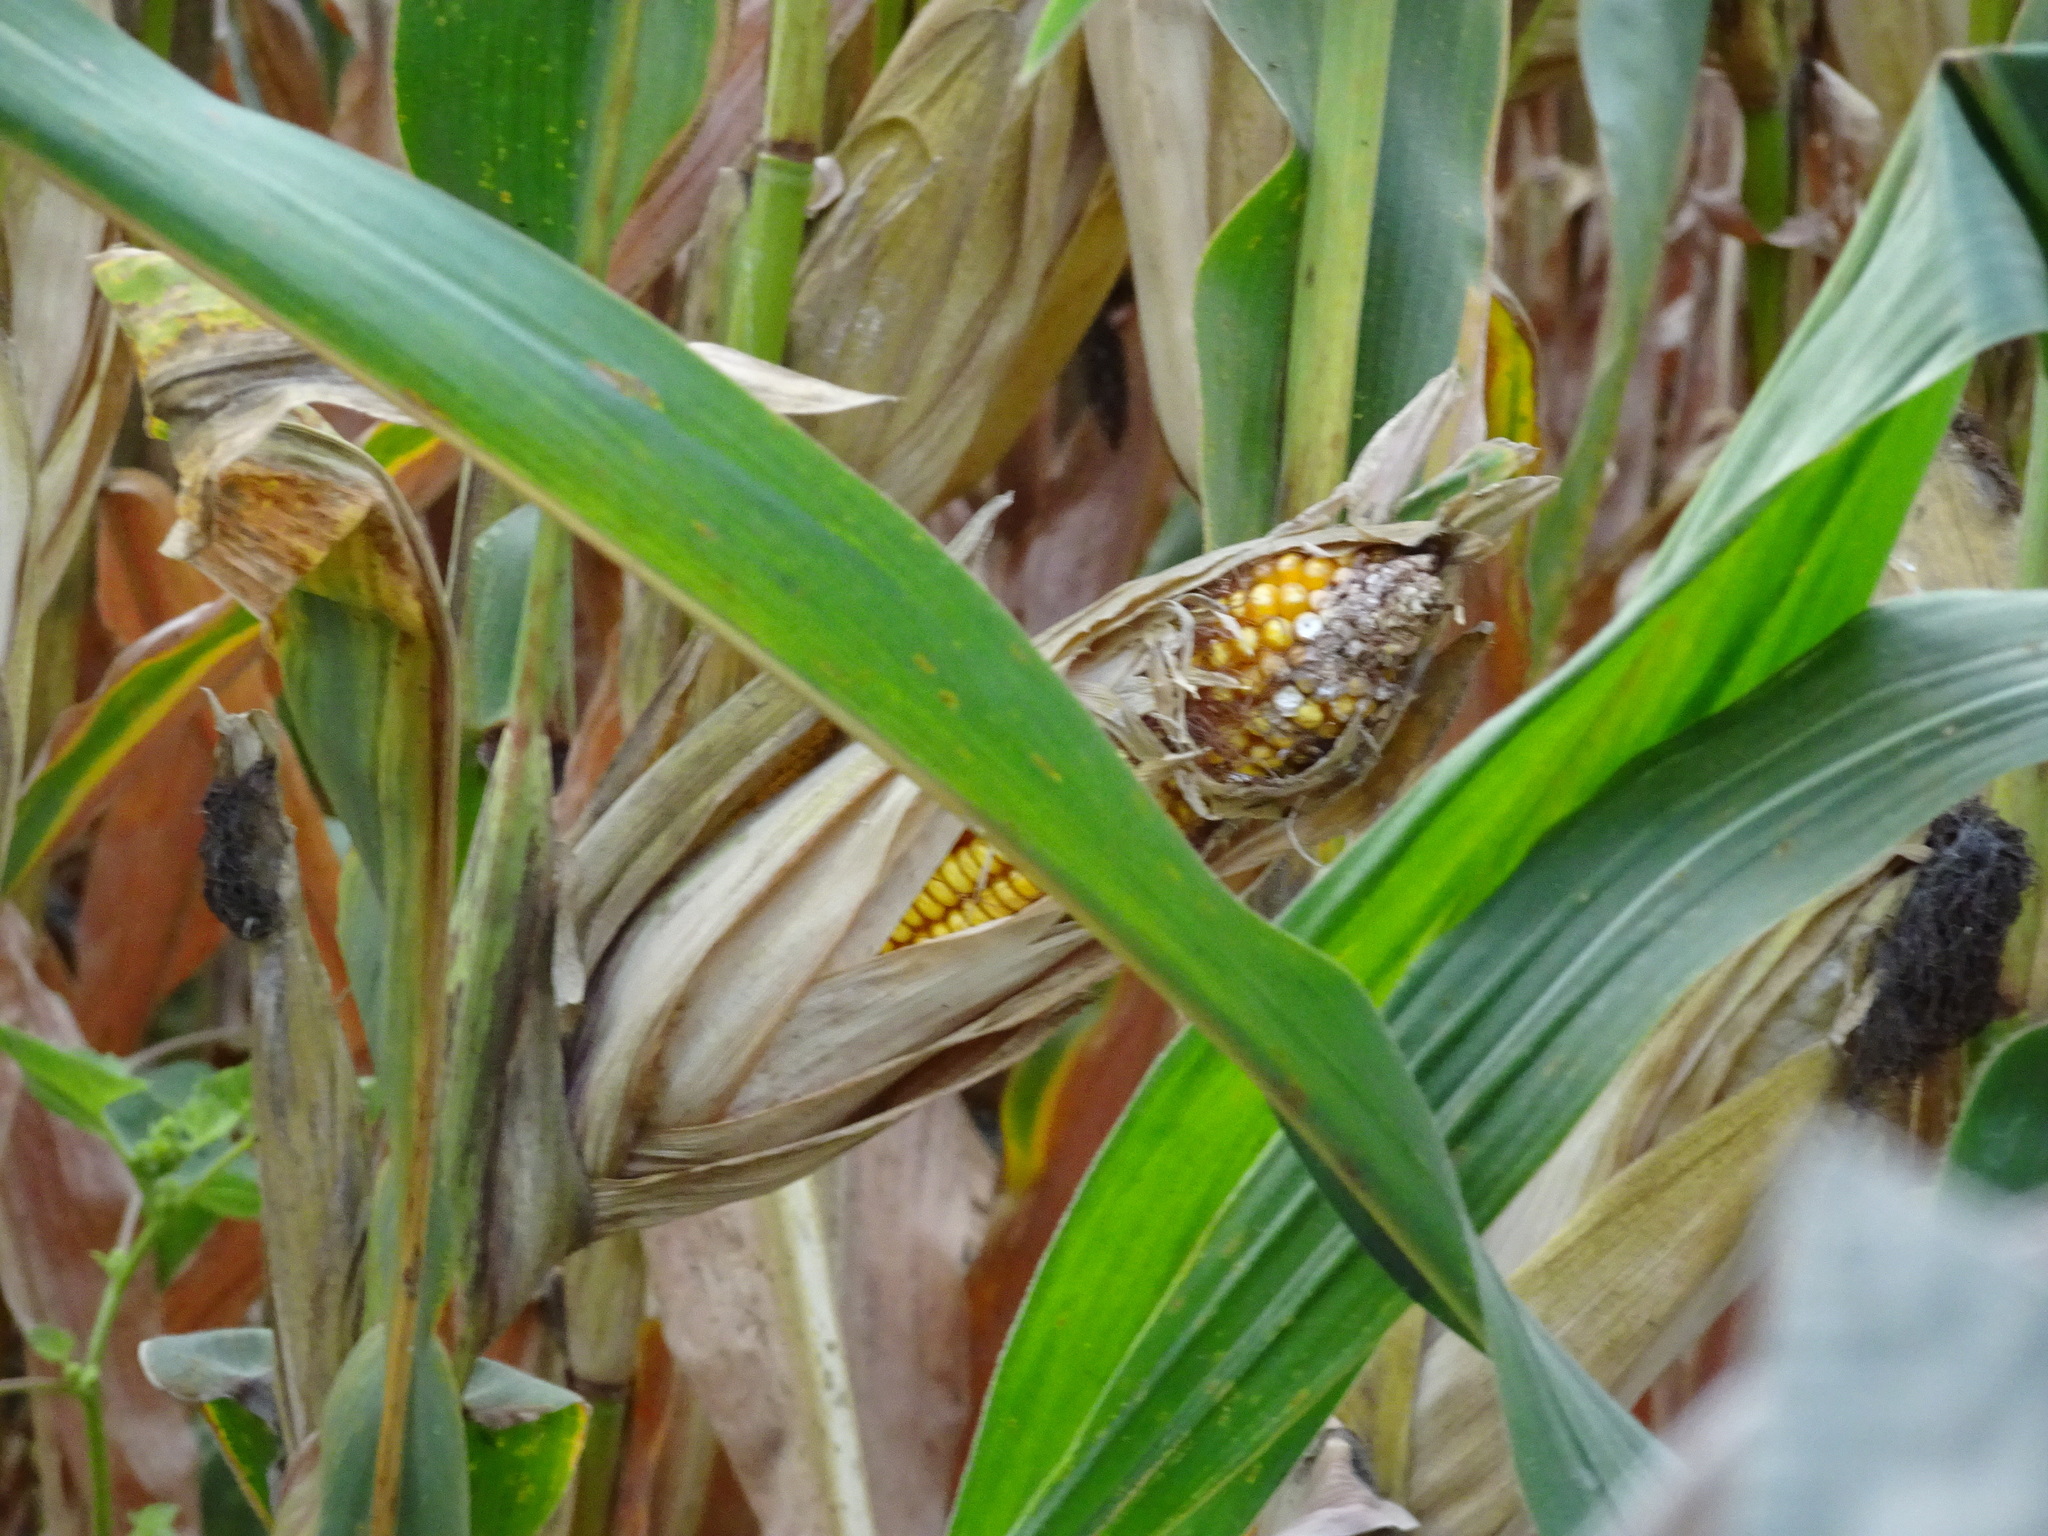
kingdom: Plantae
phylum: Tracheophyta
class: Liliopsida
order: Poales
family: Poaceae
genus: Zea
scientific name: Zea mays
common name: Maize
